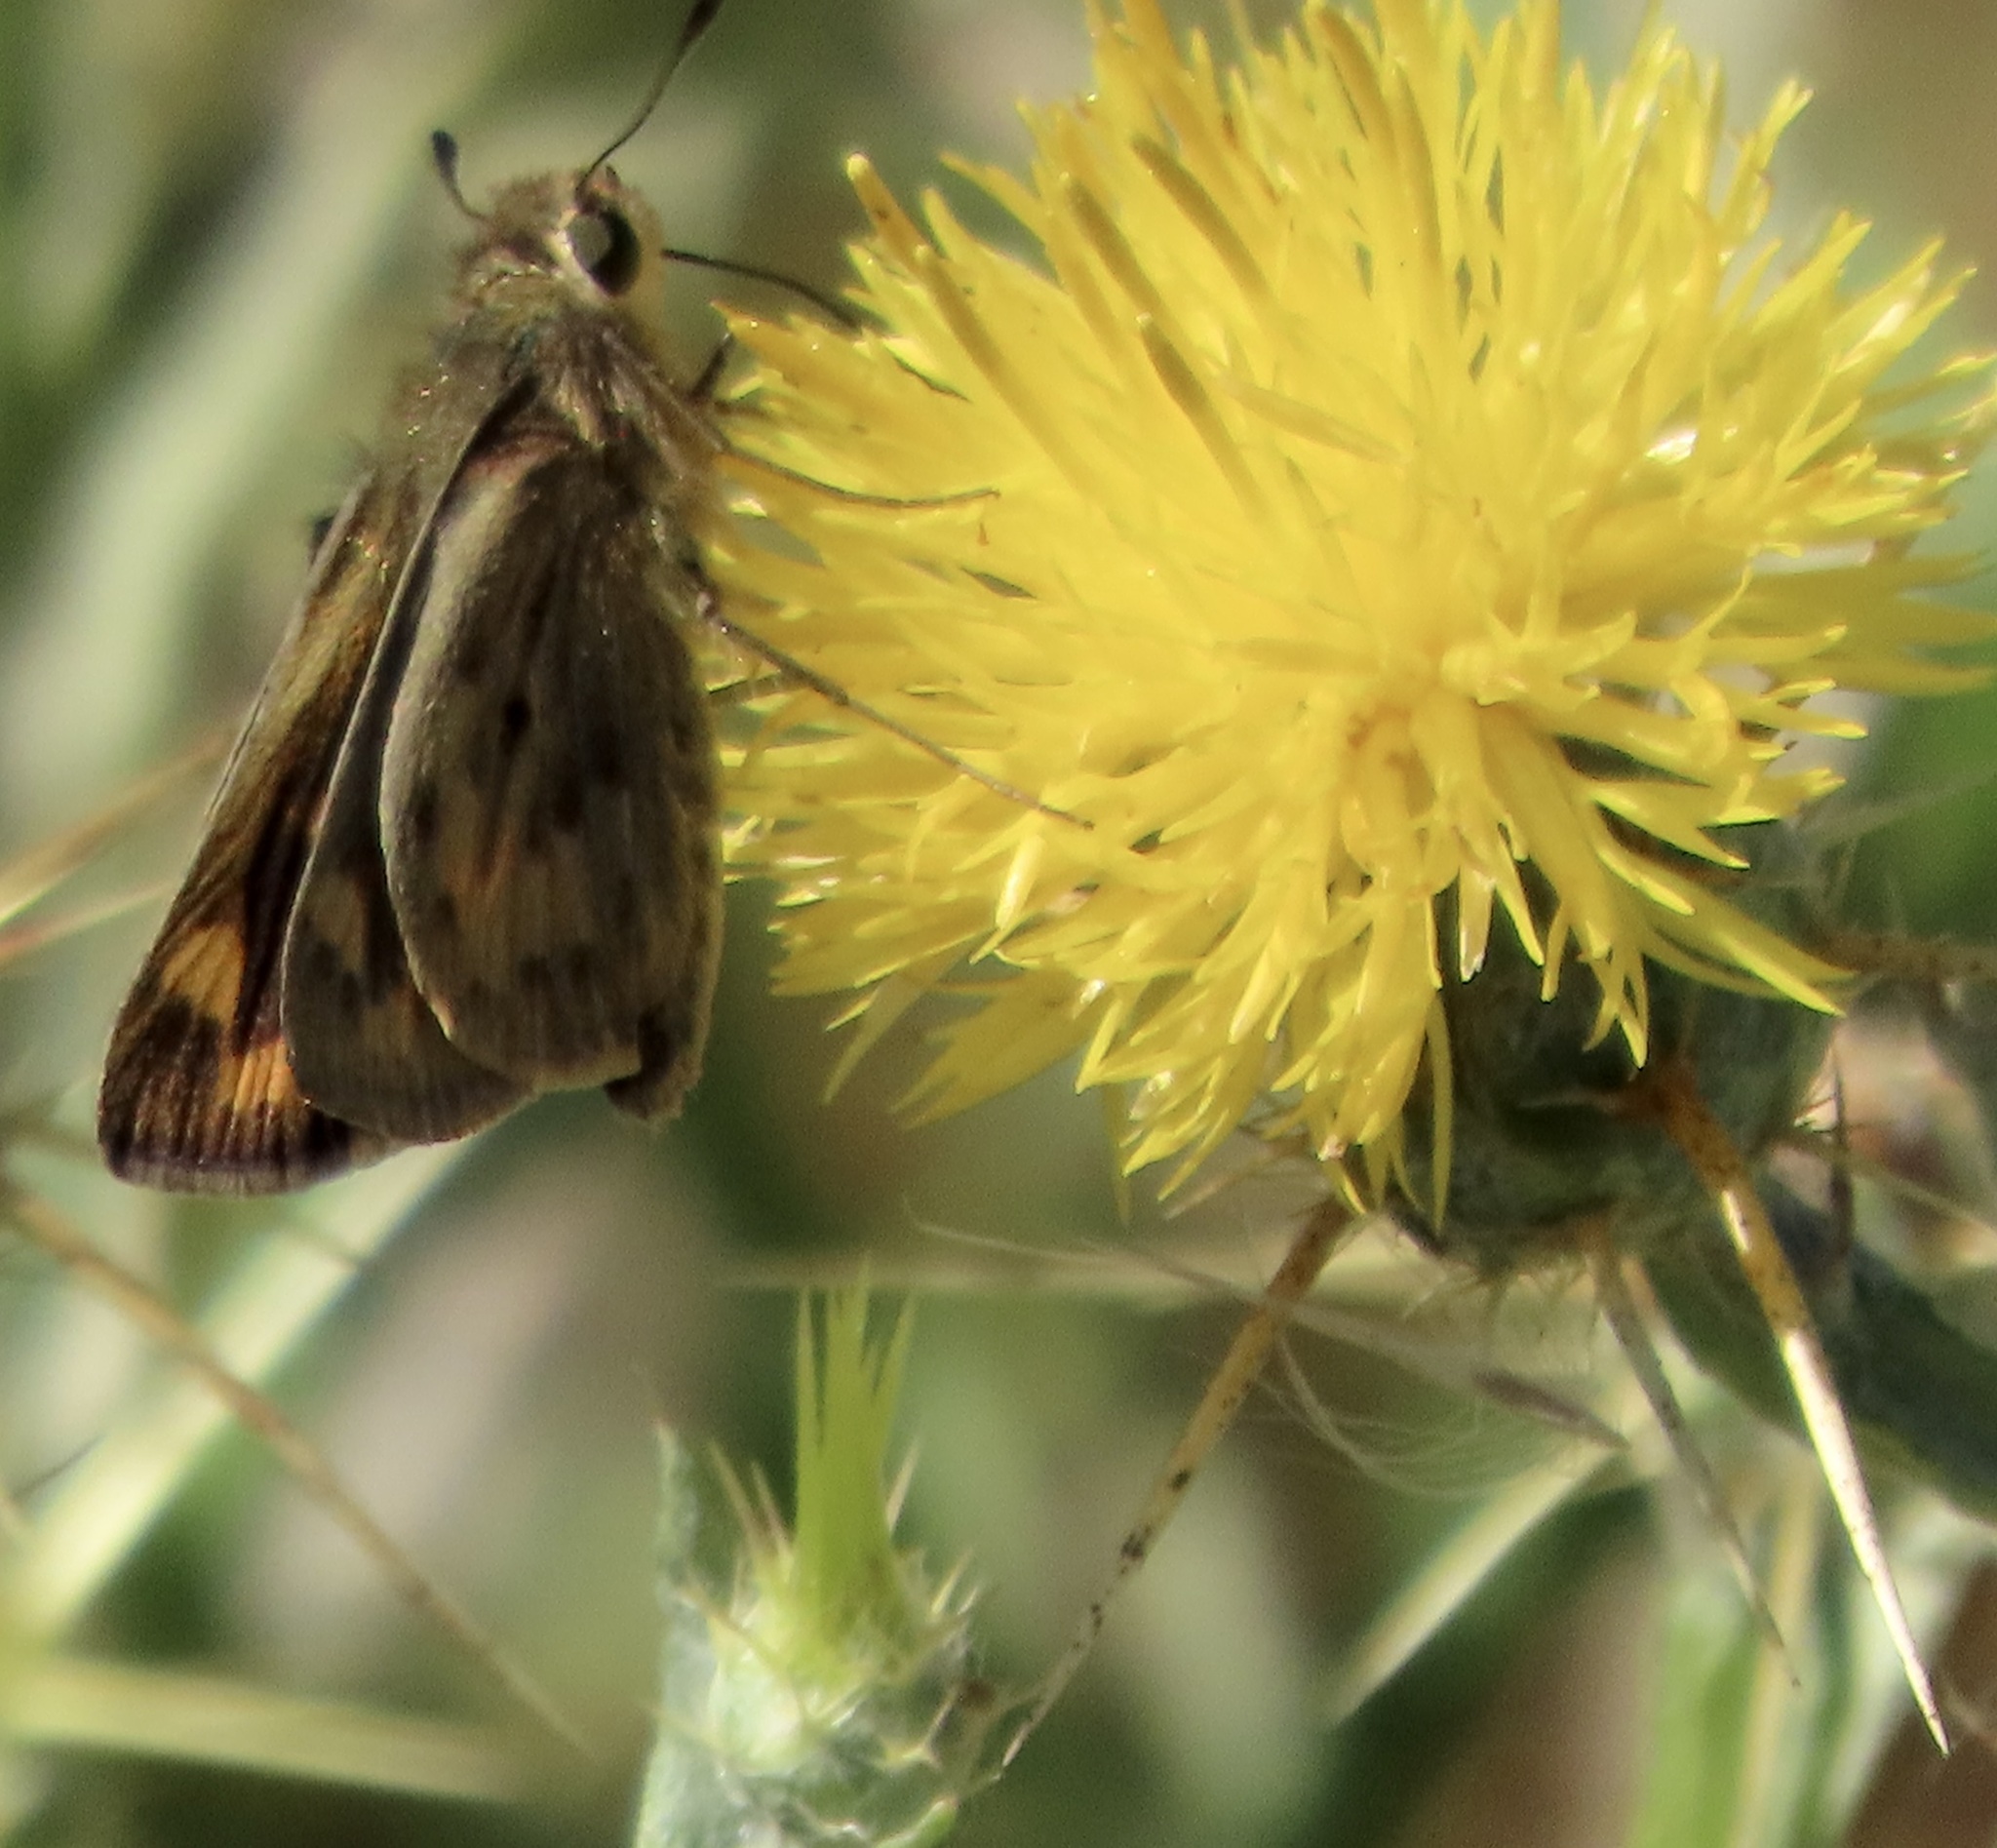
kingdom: Animalia
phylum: Arthropoda
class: Insecta
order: Lepidoptera
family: Hesperiidae
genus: Hylephila
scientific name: Hylephila phyleus
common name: Fiery skipper
